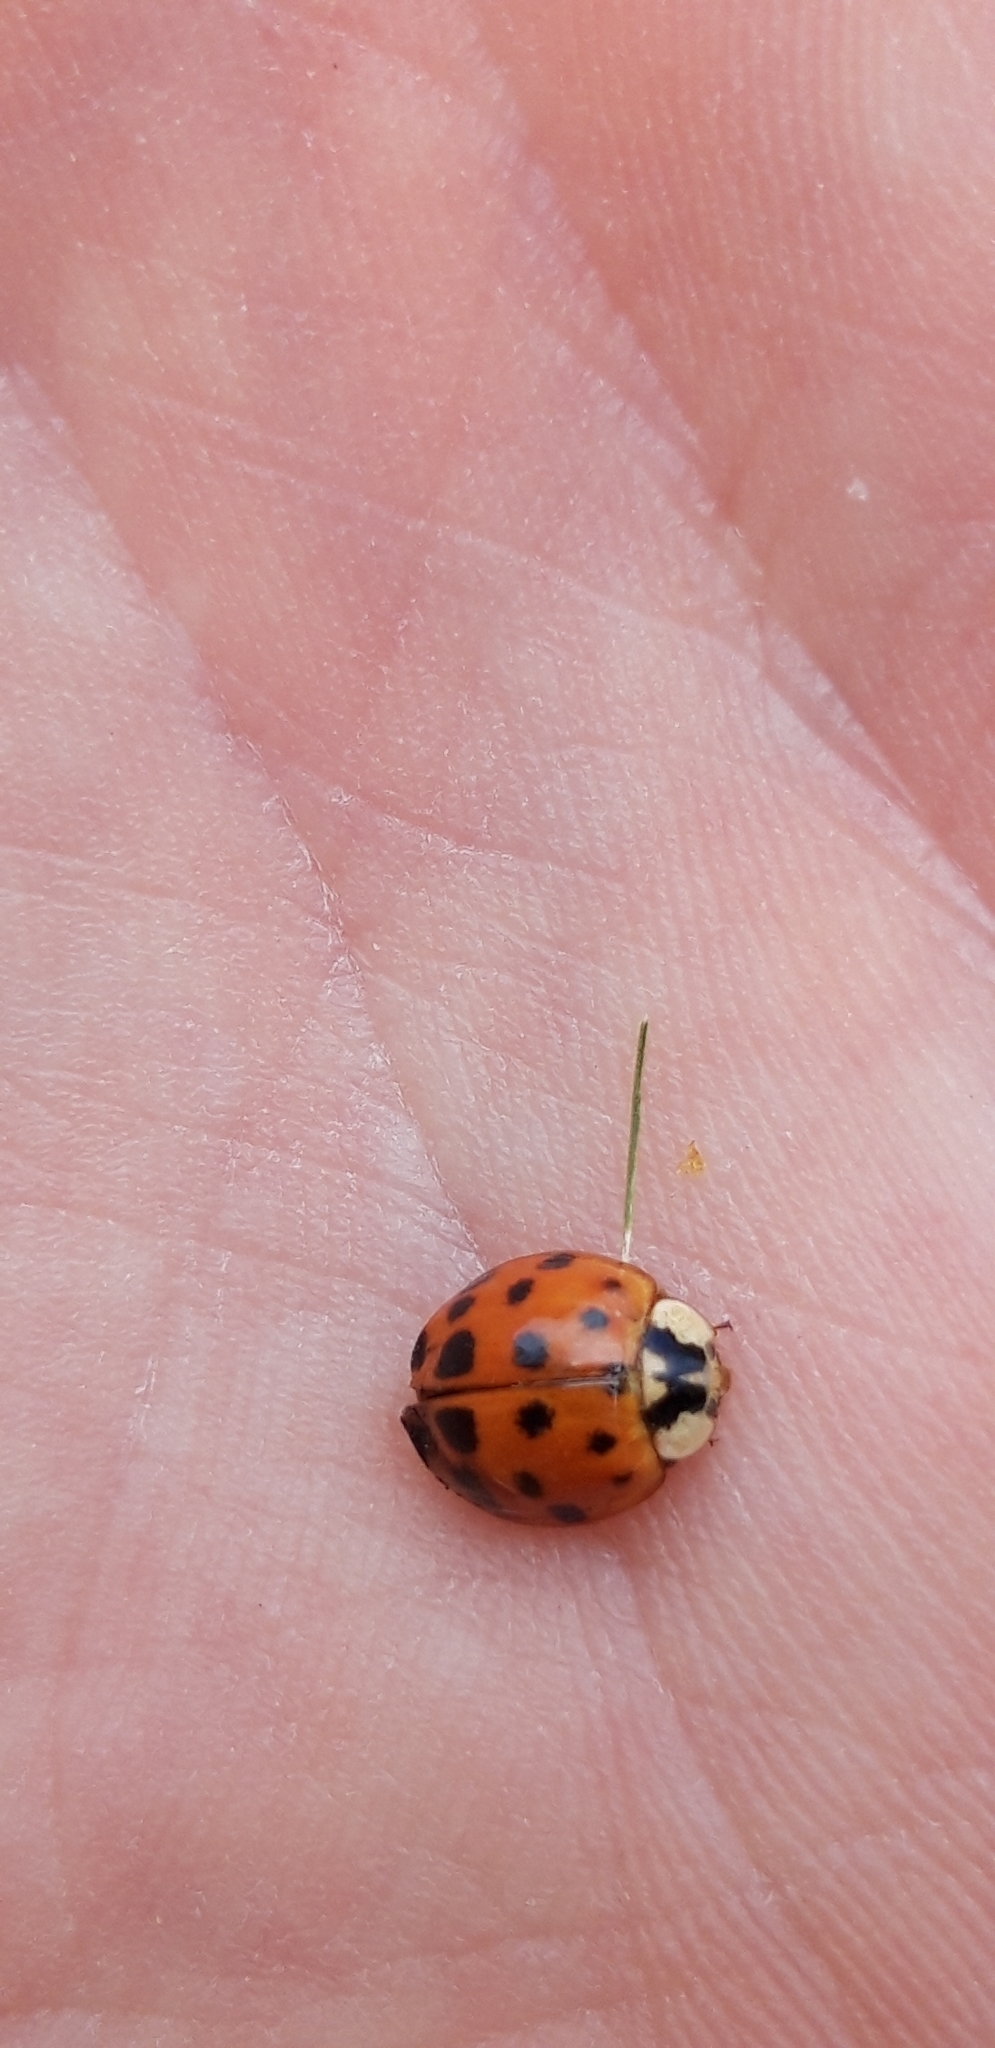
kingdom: Animalia
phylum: Arthropoda
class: Insecta
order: Coleoptera
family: Coccinellidae
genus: Harmonia
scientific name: Harmonia axyridis
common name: Harlequin ladybird
